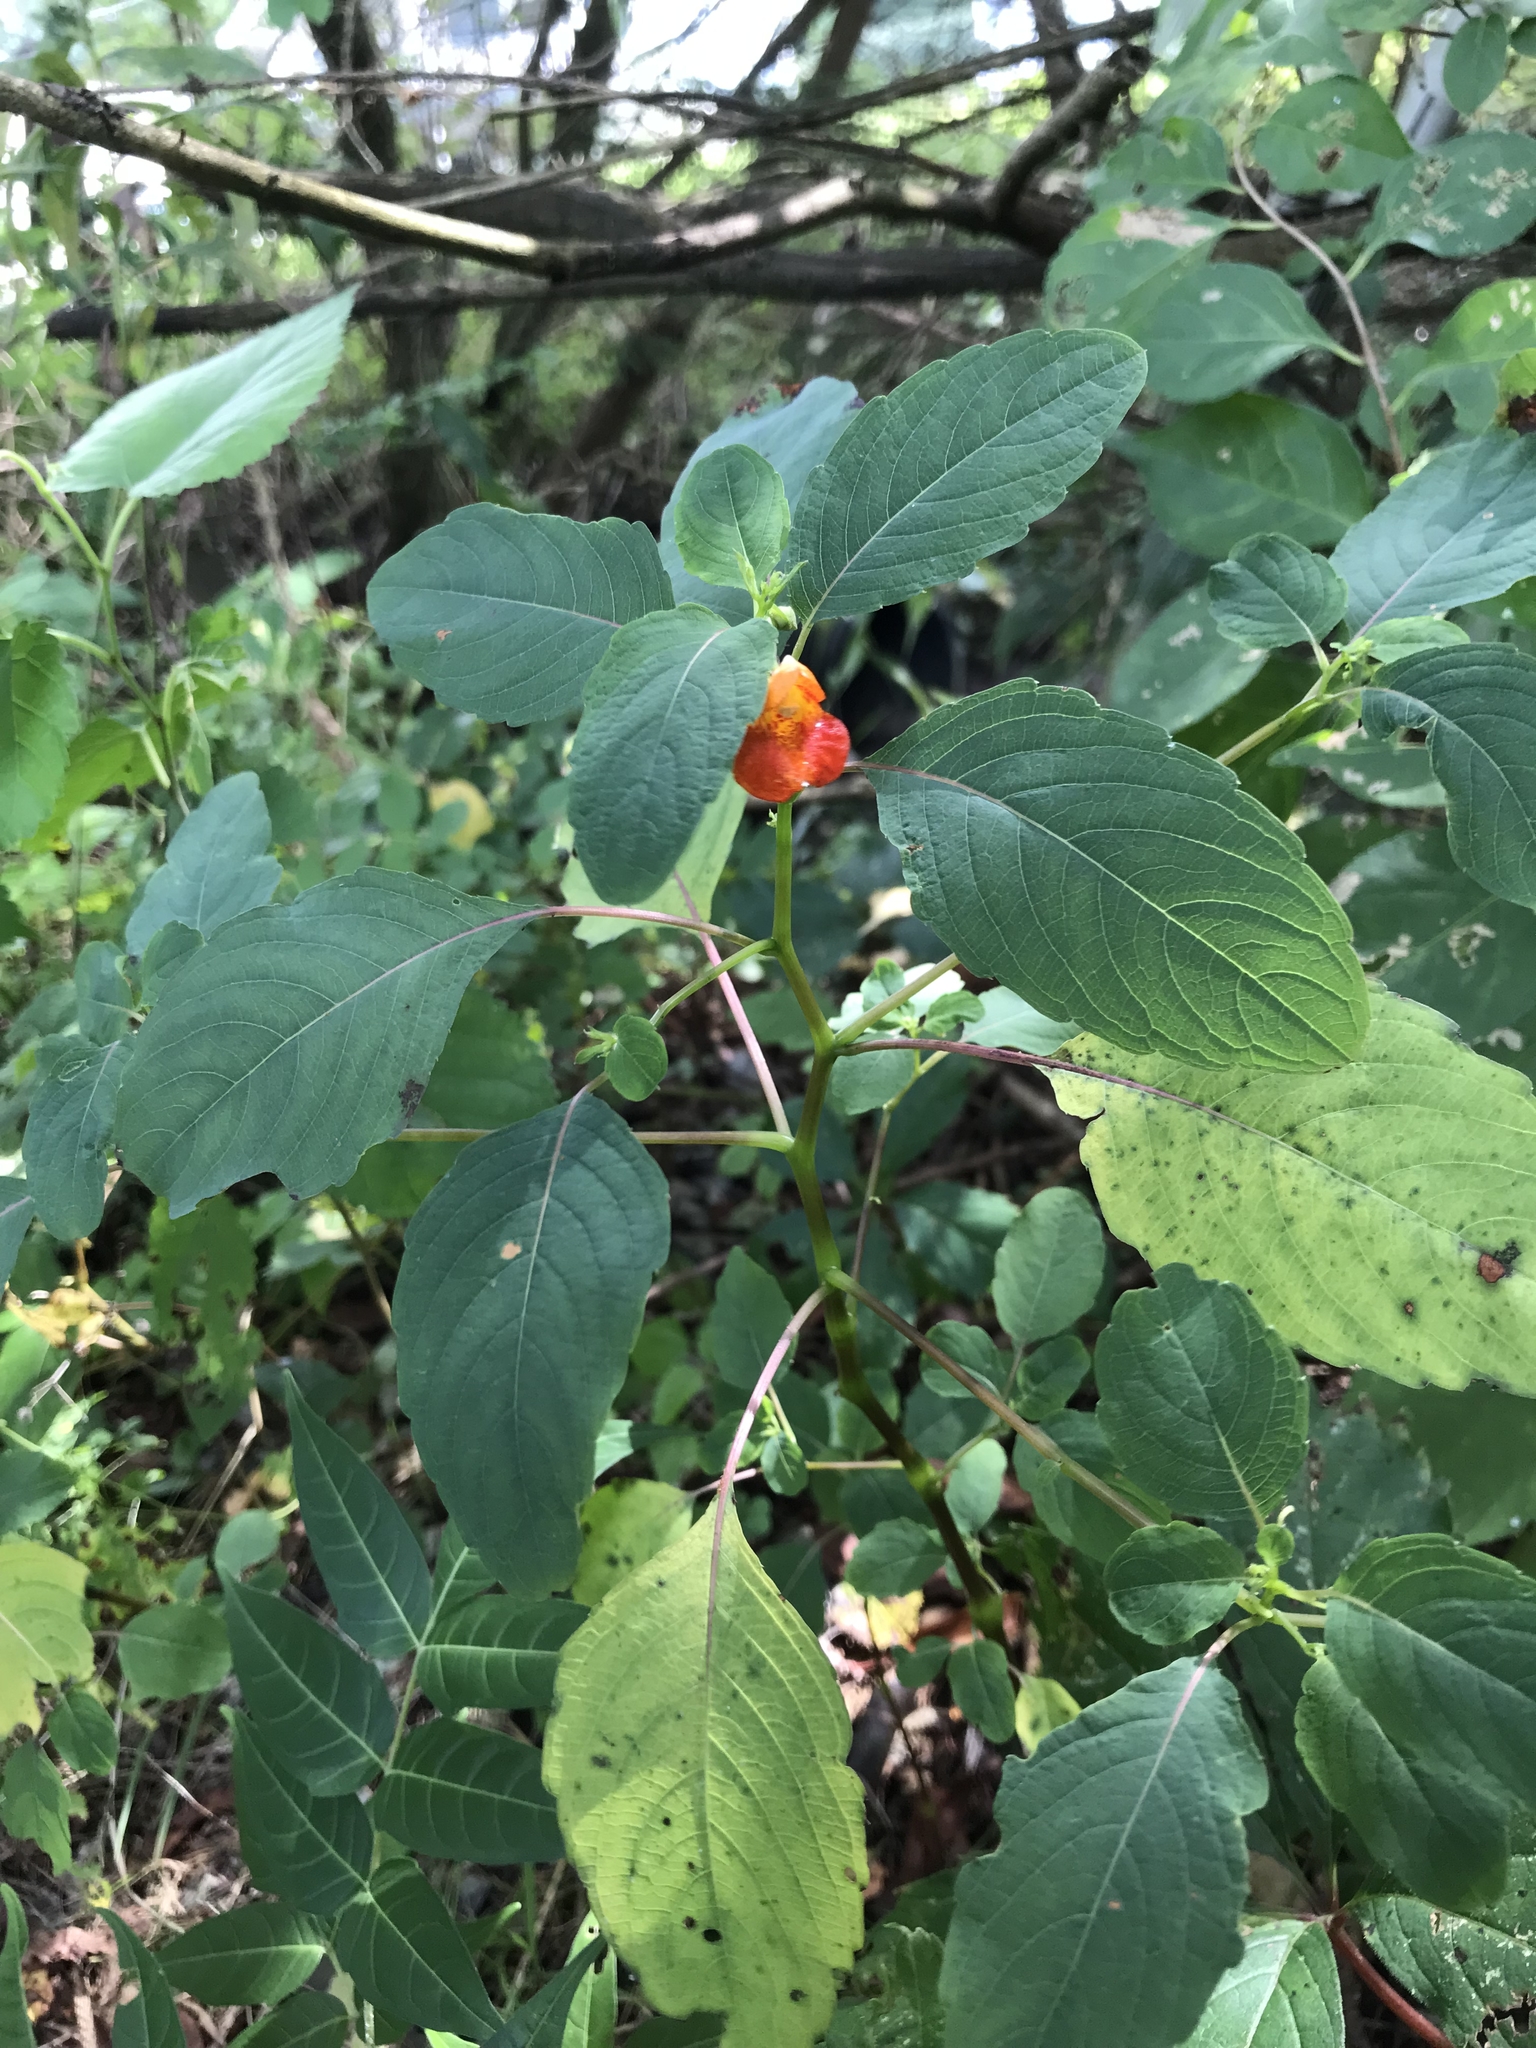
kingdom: Plantae
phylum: Tracheophyta
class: Magnoliopsida
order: Ericales
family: Balsaminaceae
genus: Impatiens
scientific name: Impatiens capensis
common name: Orange balsam
